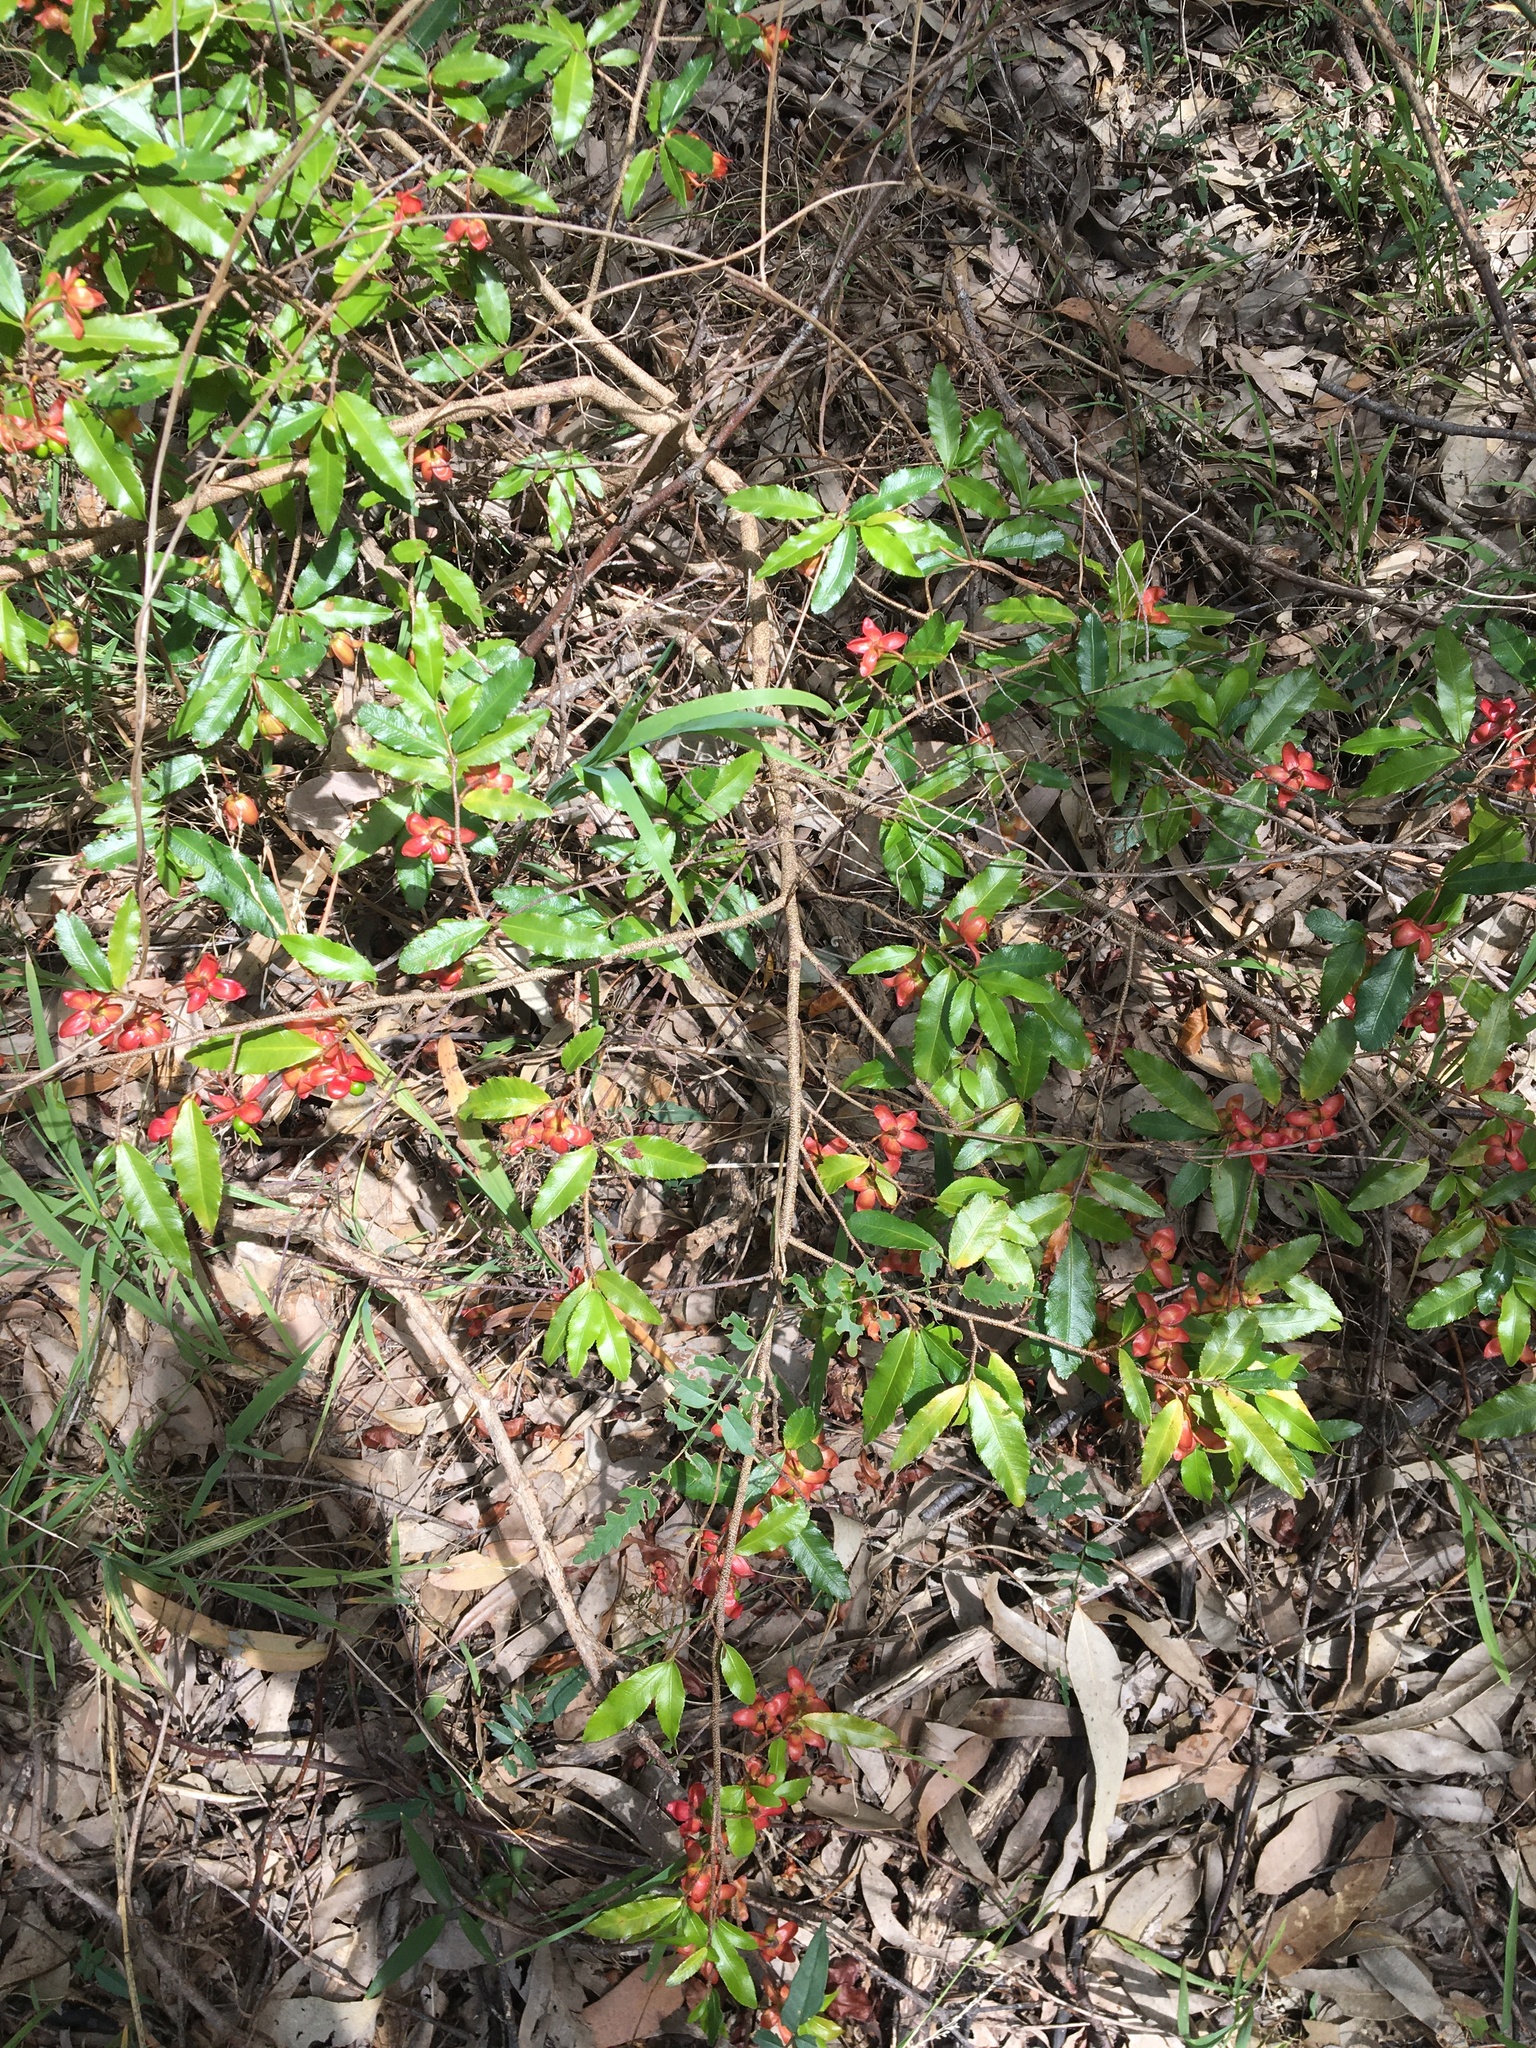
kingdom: Plantae
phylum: Tracheophyta
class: Magnoliopsida
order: Malpighiales
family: Ochnaceae
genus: Ochna
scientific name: Ochna serrulata
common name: Mickey mouse plant
